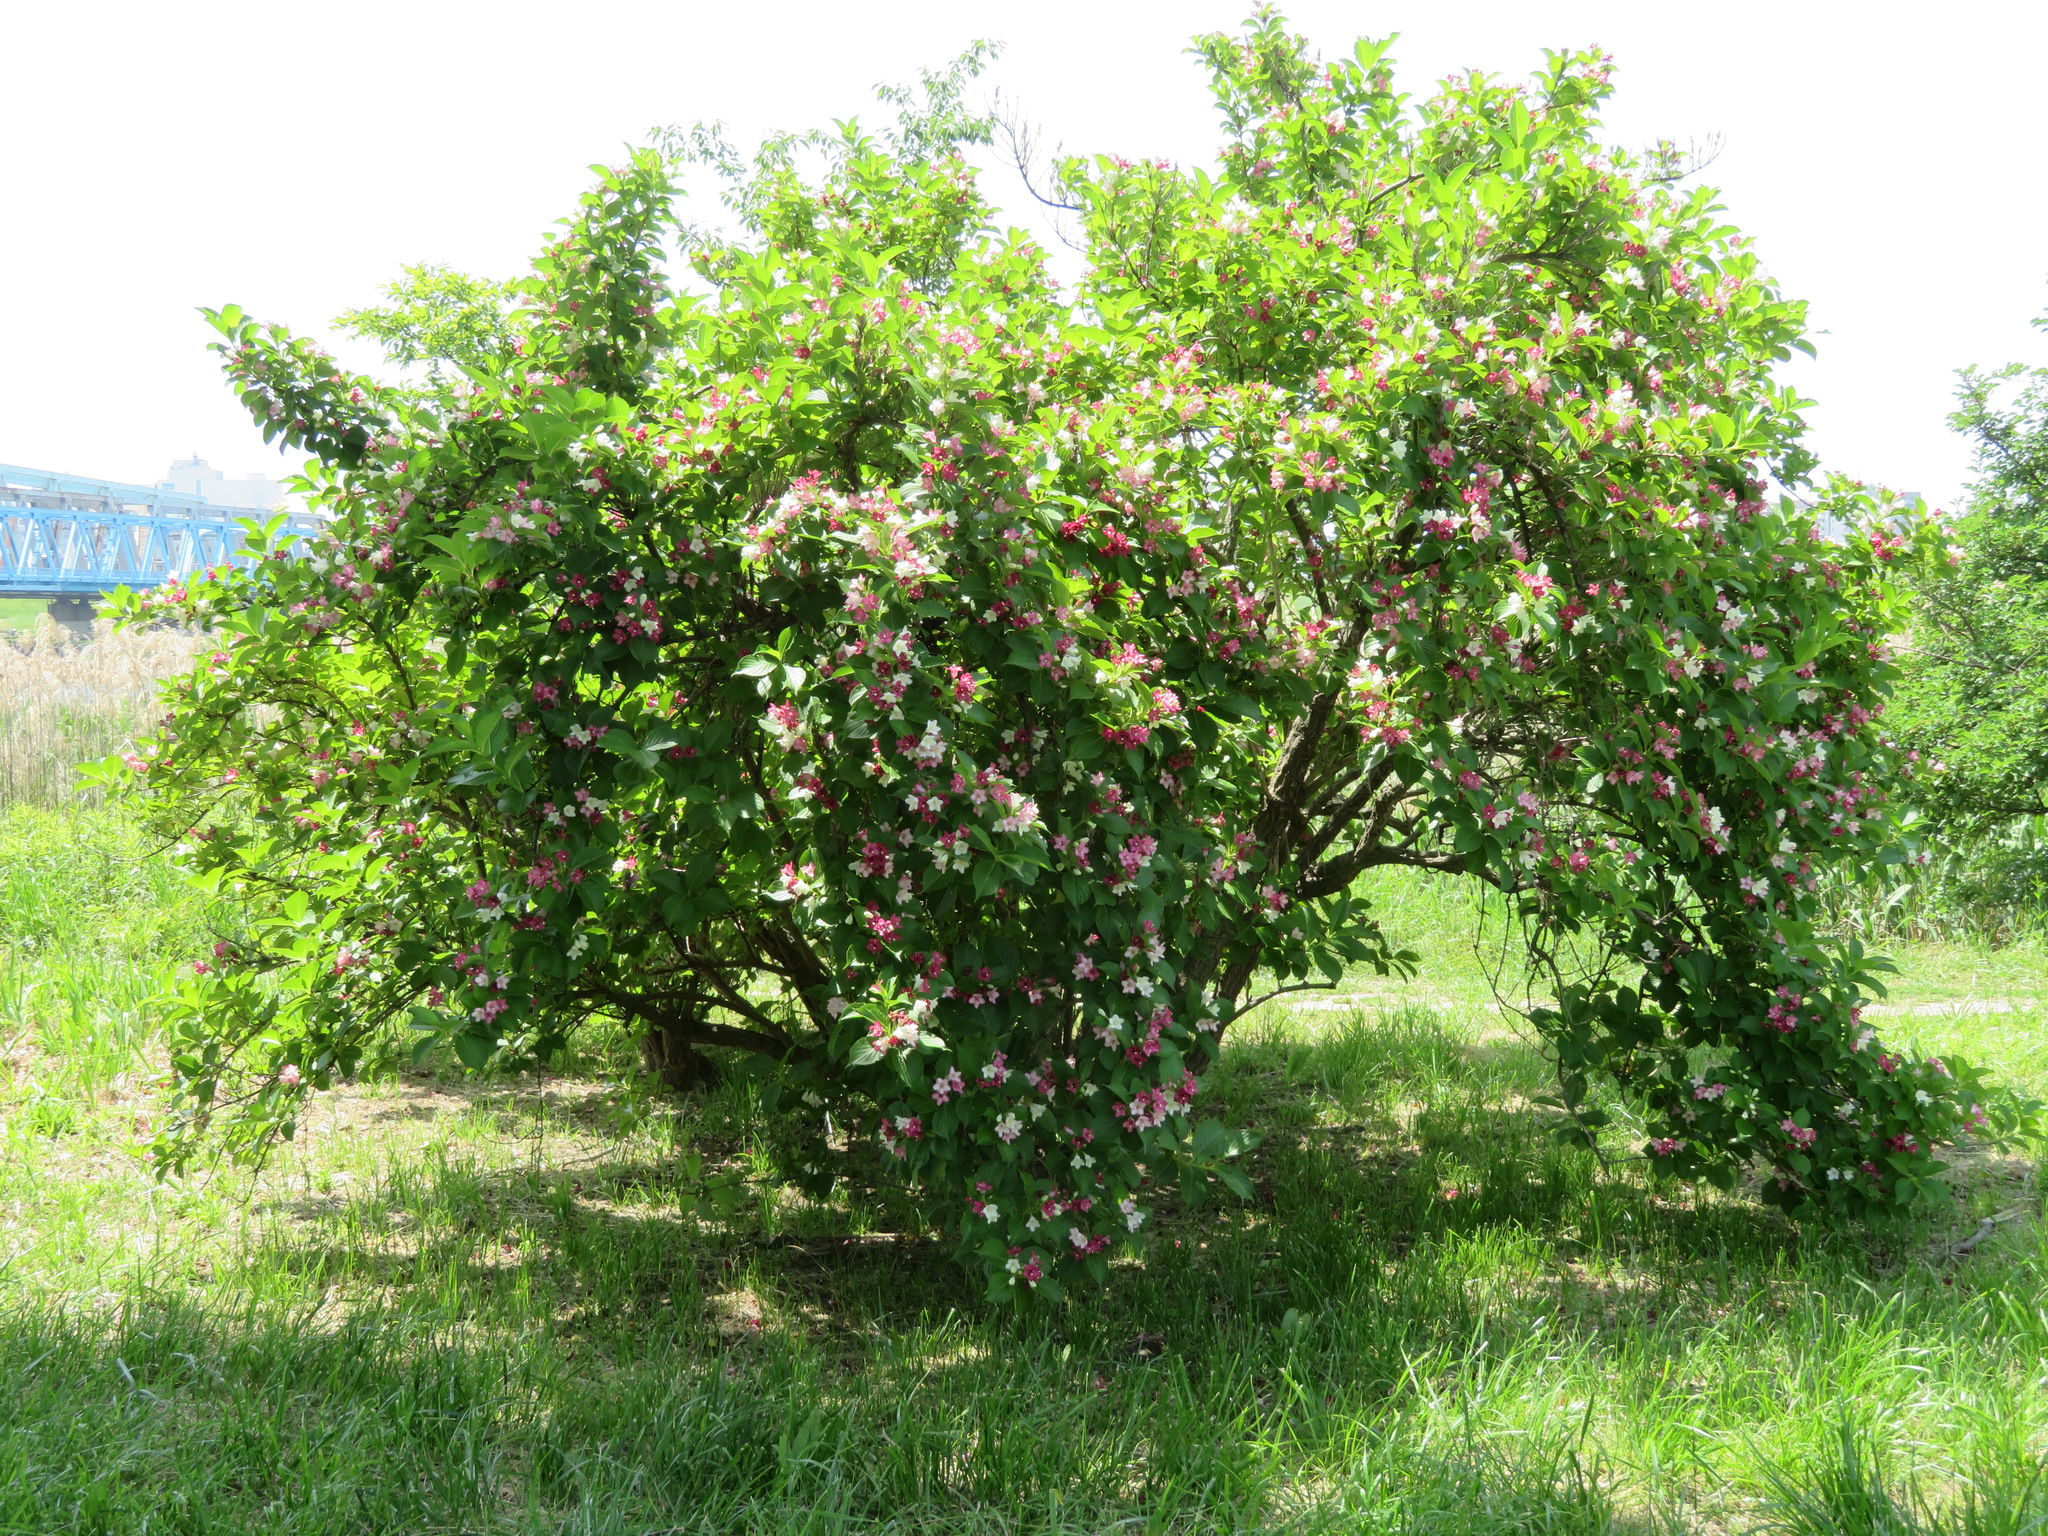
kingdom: Plantae
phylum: Tracheophyta
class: Magnoliopsida
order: Dipsacales
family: Caprifoliaceae
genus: Weigela
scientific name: Weigela coraeensis
